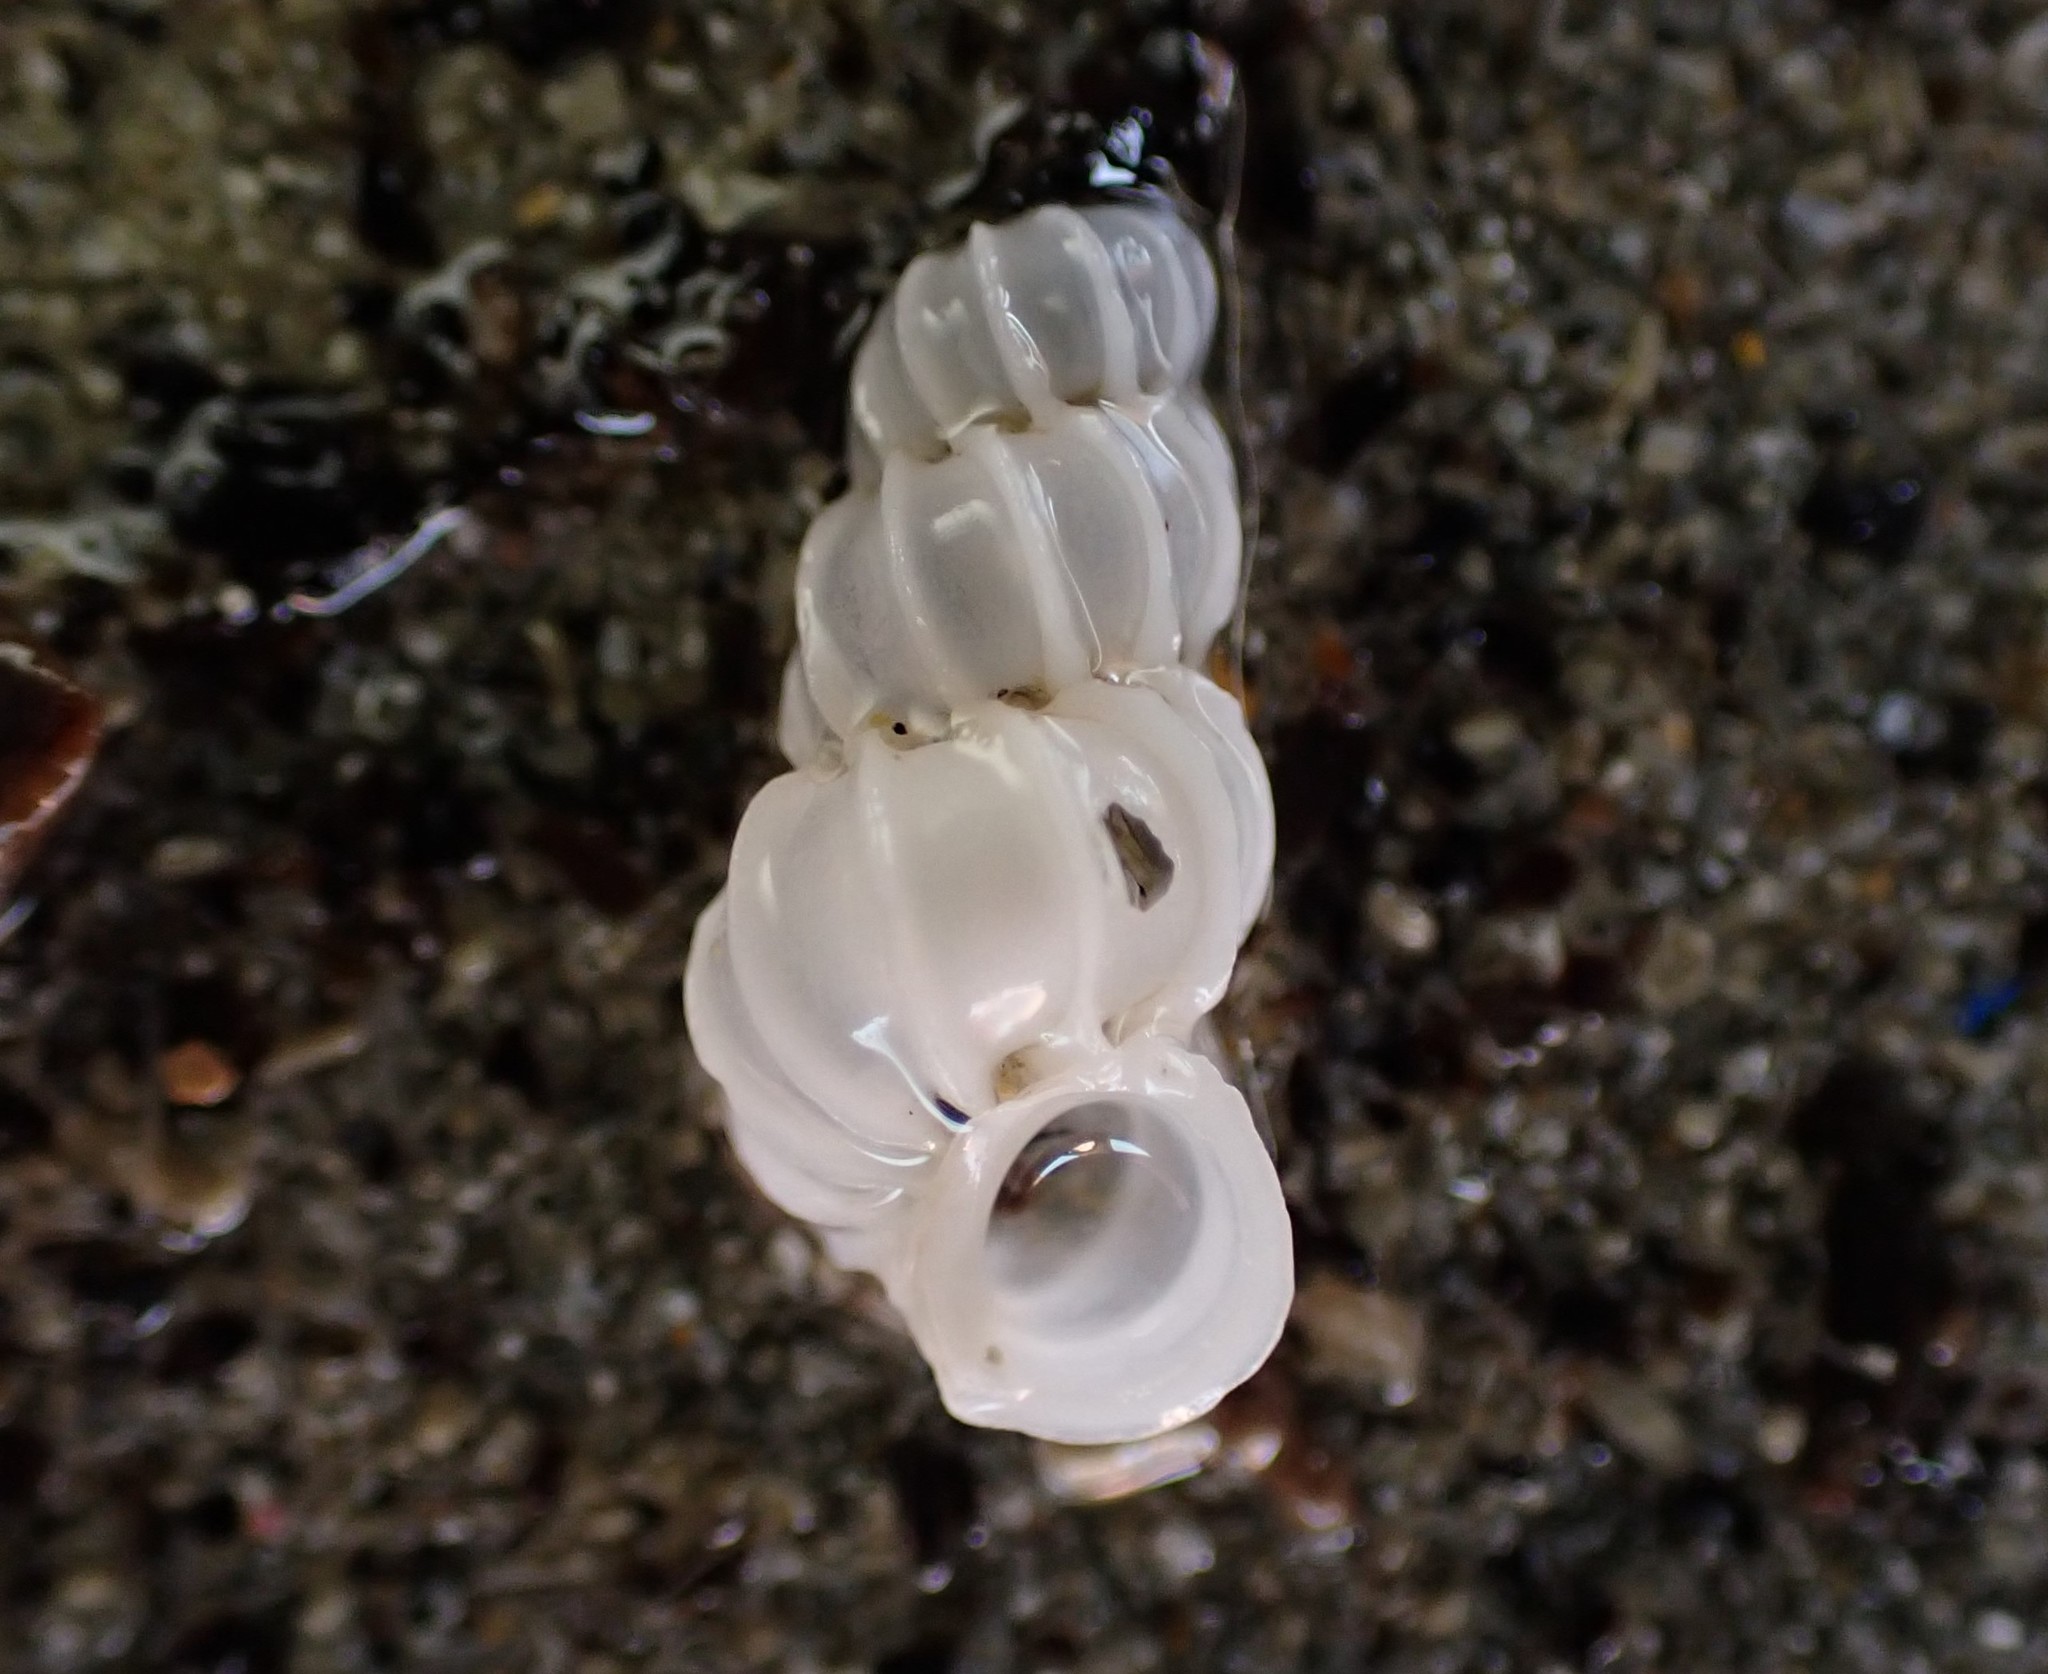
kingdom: Animalia
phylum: Mollusca
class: Gastropoda
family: Epitoniidae
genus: Epitonium
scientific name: Epitonium minorum
